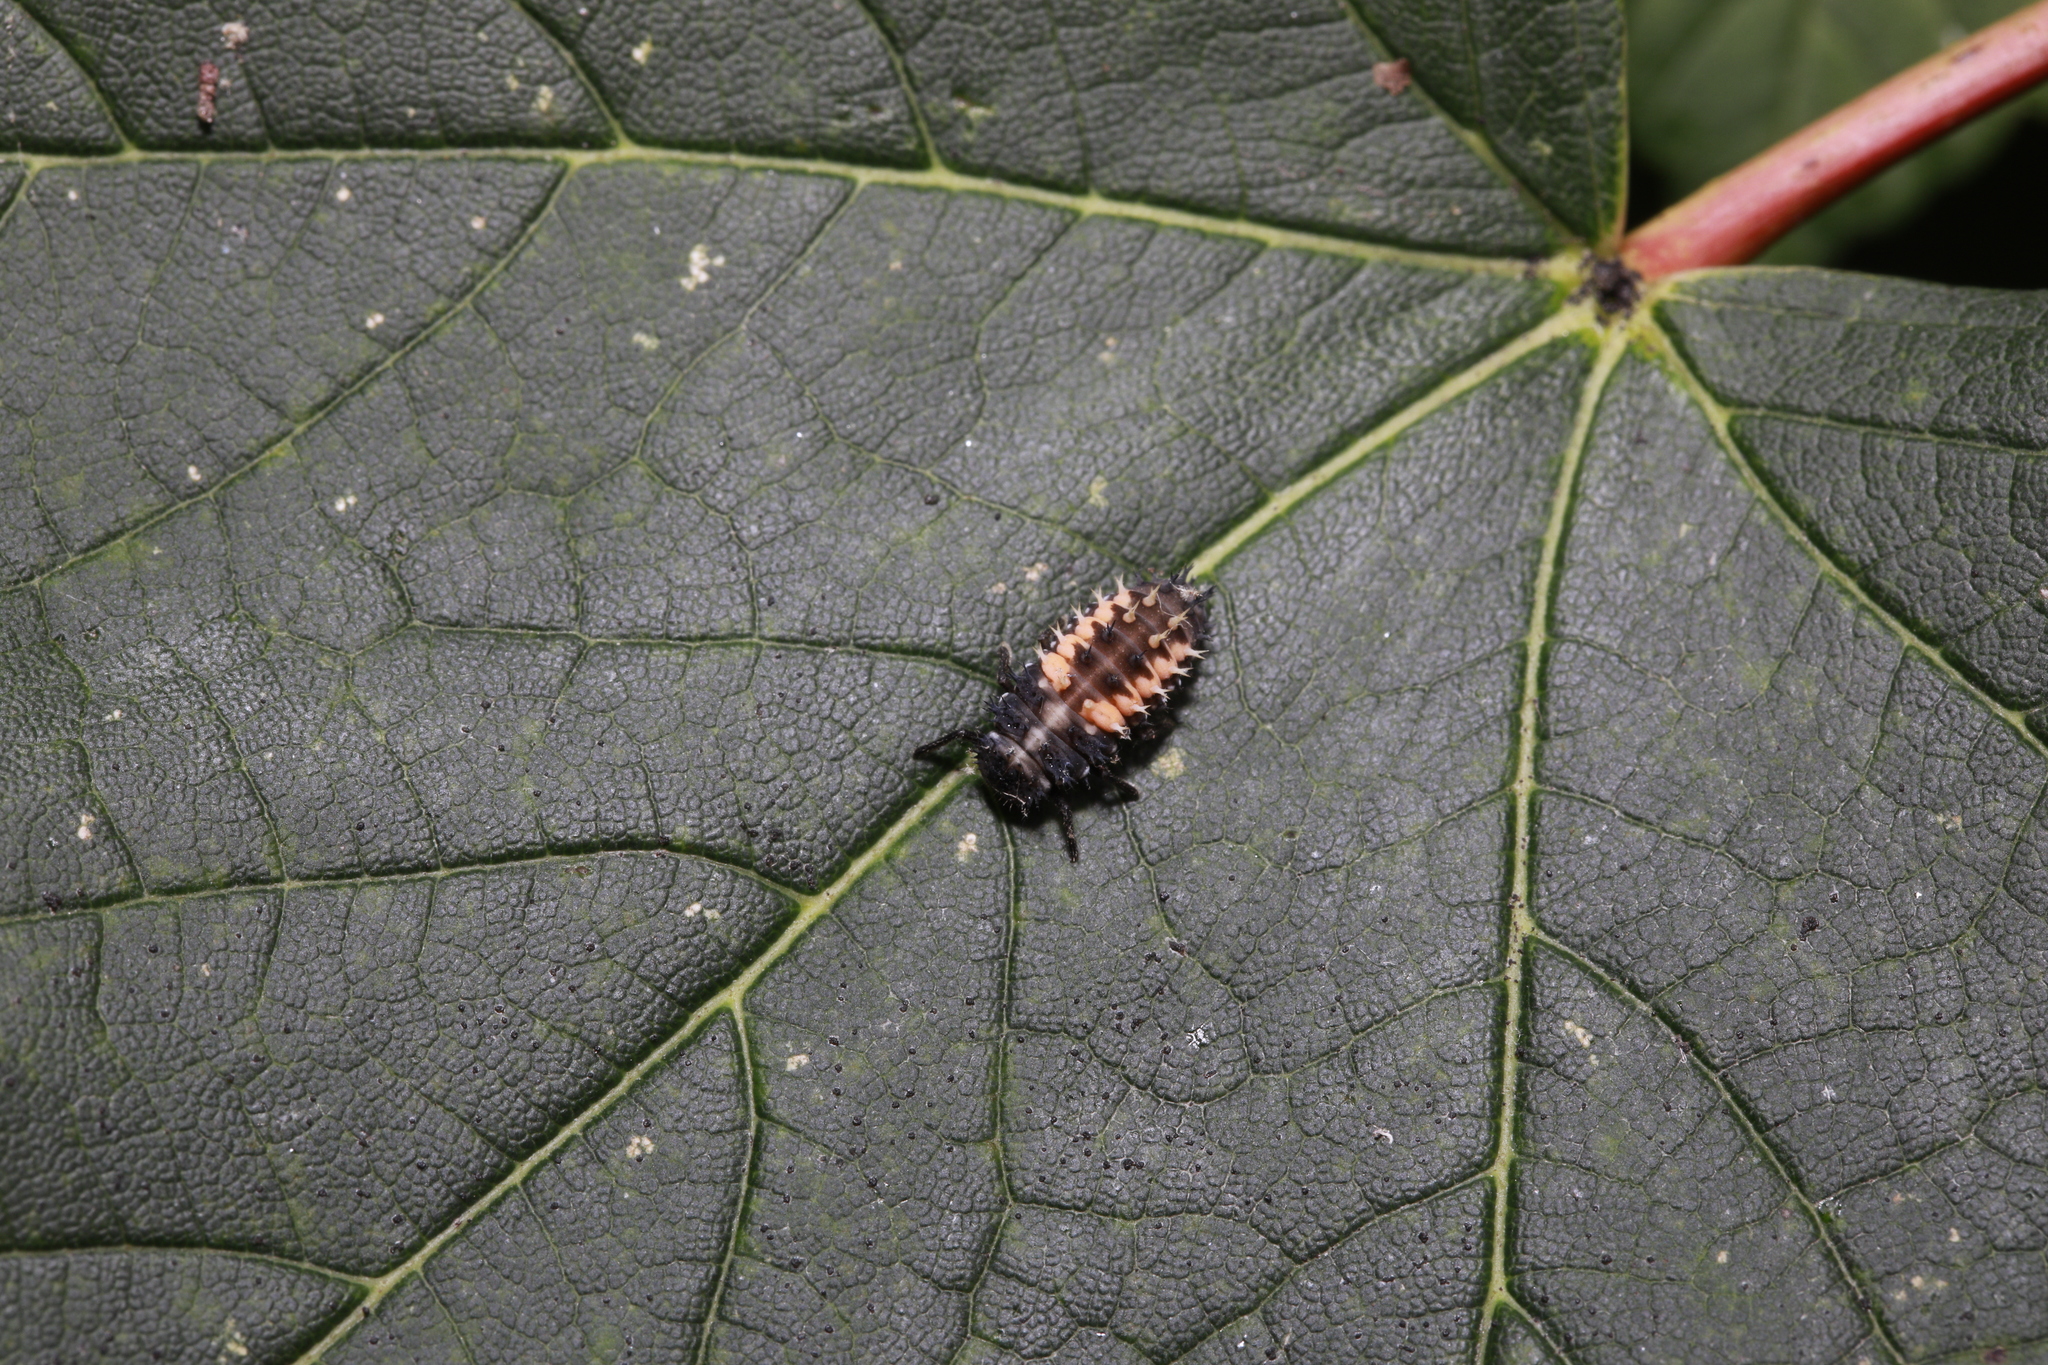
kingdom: Animalia
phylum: Arthropoda
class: Insecta
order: Coleoptera
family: Coccinellidae
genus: Harmonia
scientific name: Harmonia axyridis
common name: Harlequin ladybird
